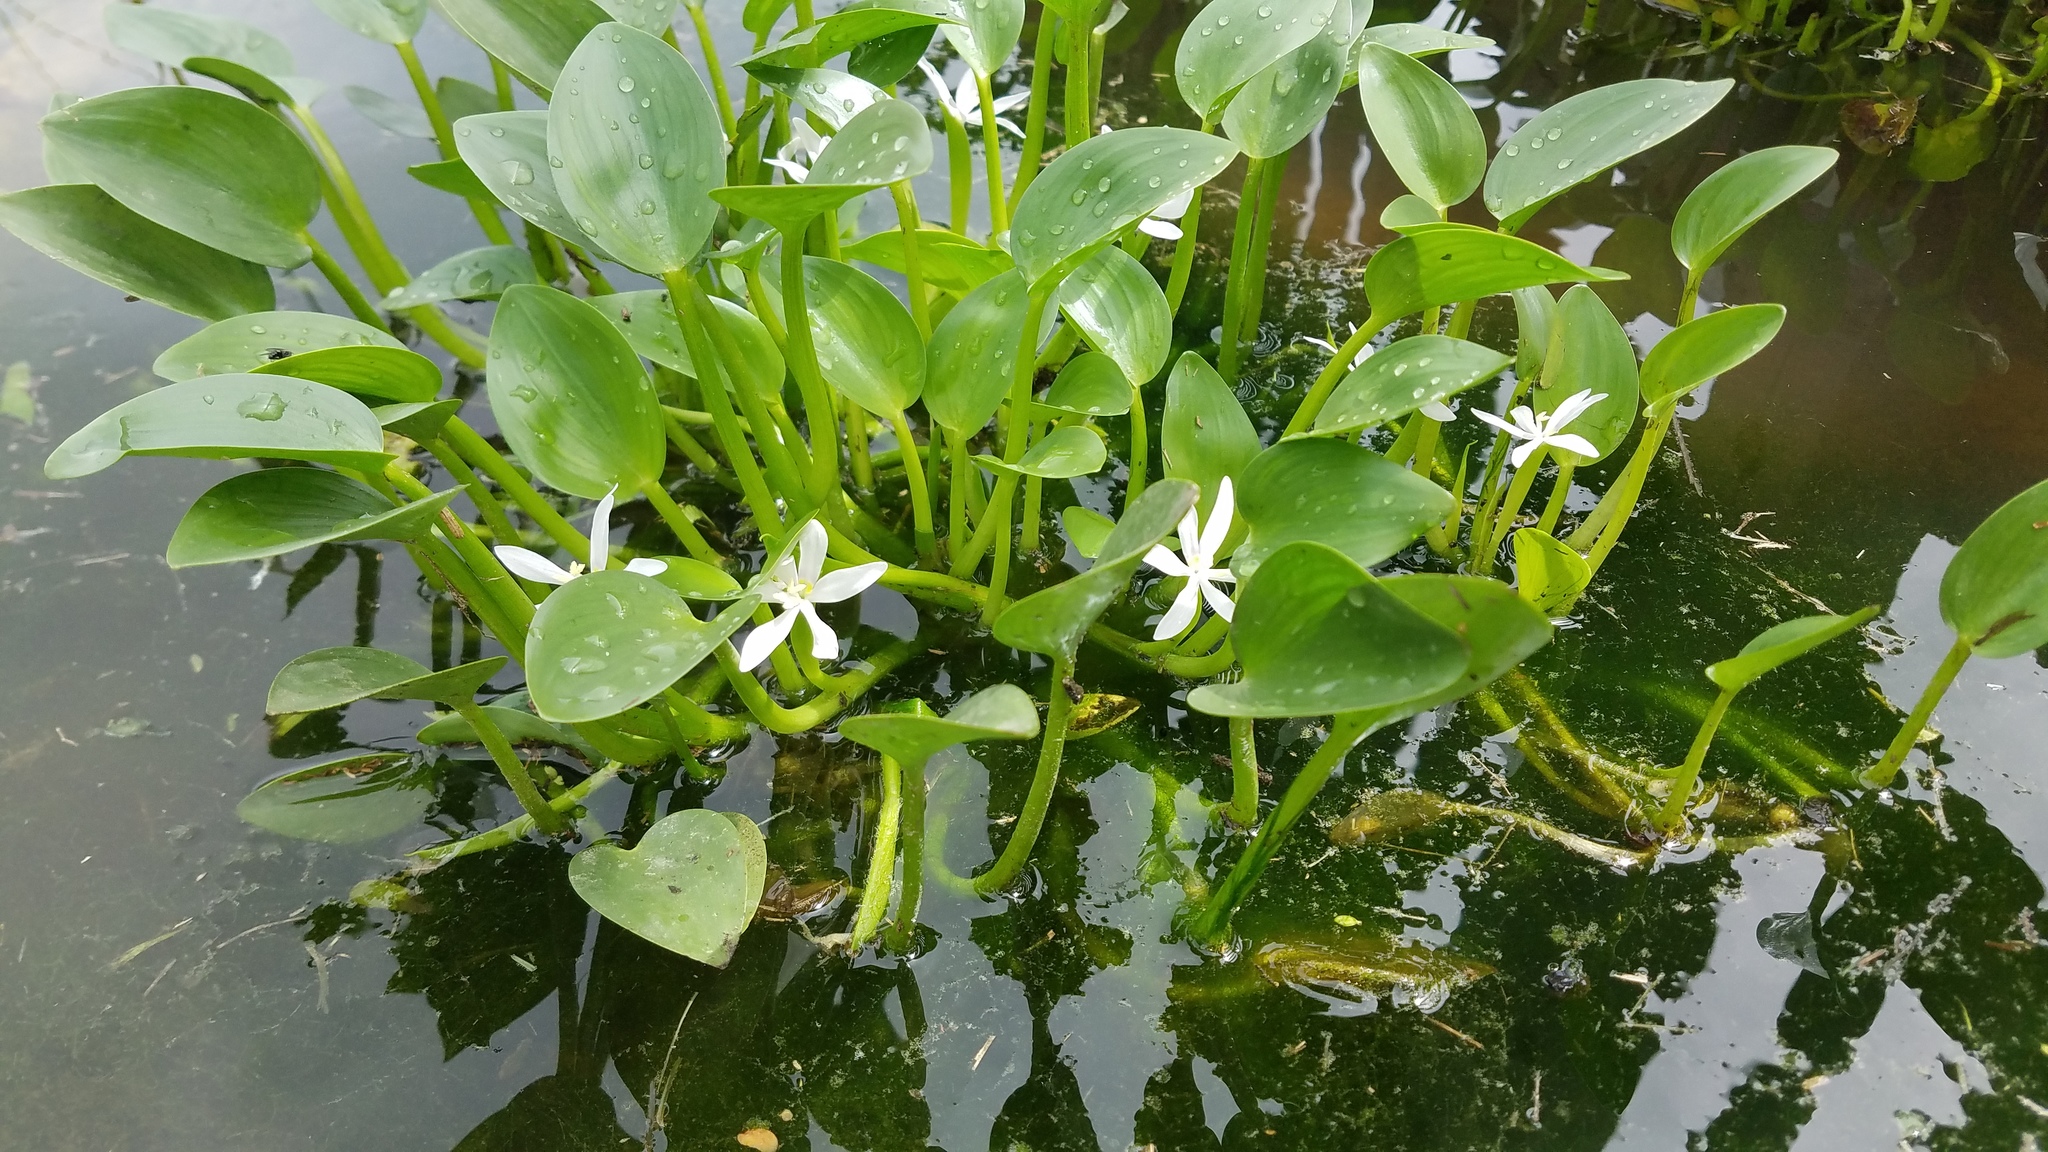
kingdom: Plantae
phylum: Tracheophyta
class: Liliopsida
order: Commelinales
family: Pontederiaceae
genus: Heteranthera
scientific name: Heteranthera limosa
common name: Blue mud-plantain
